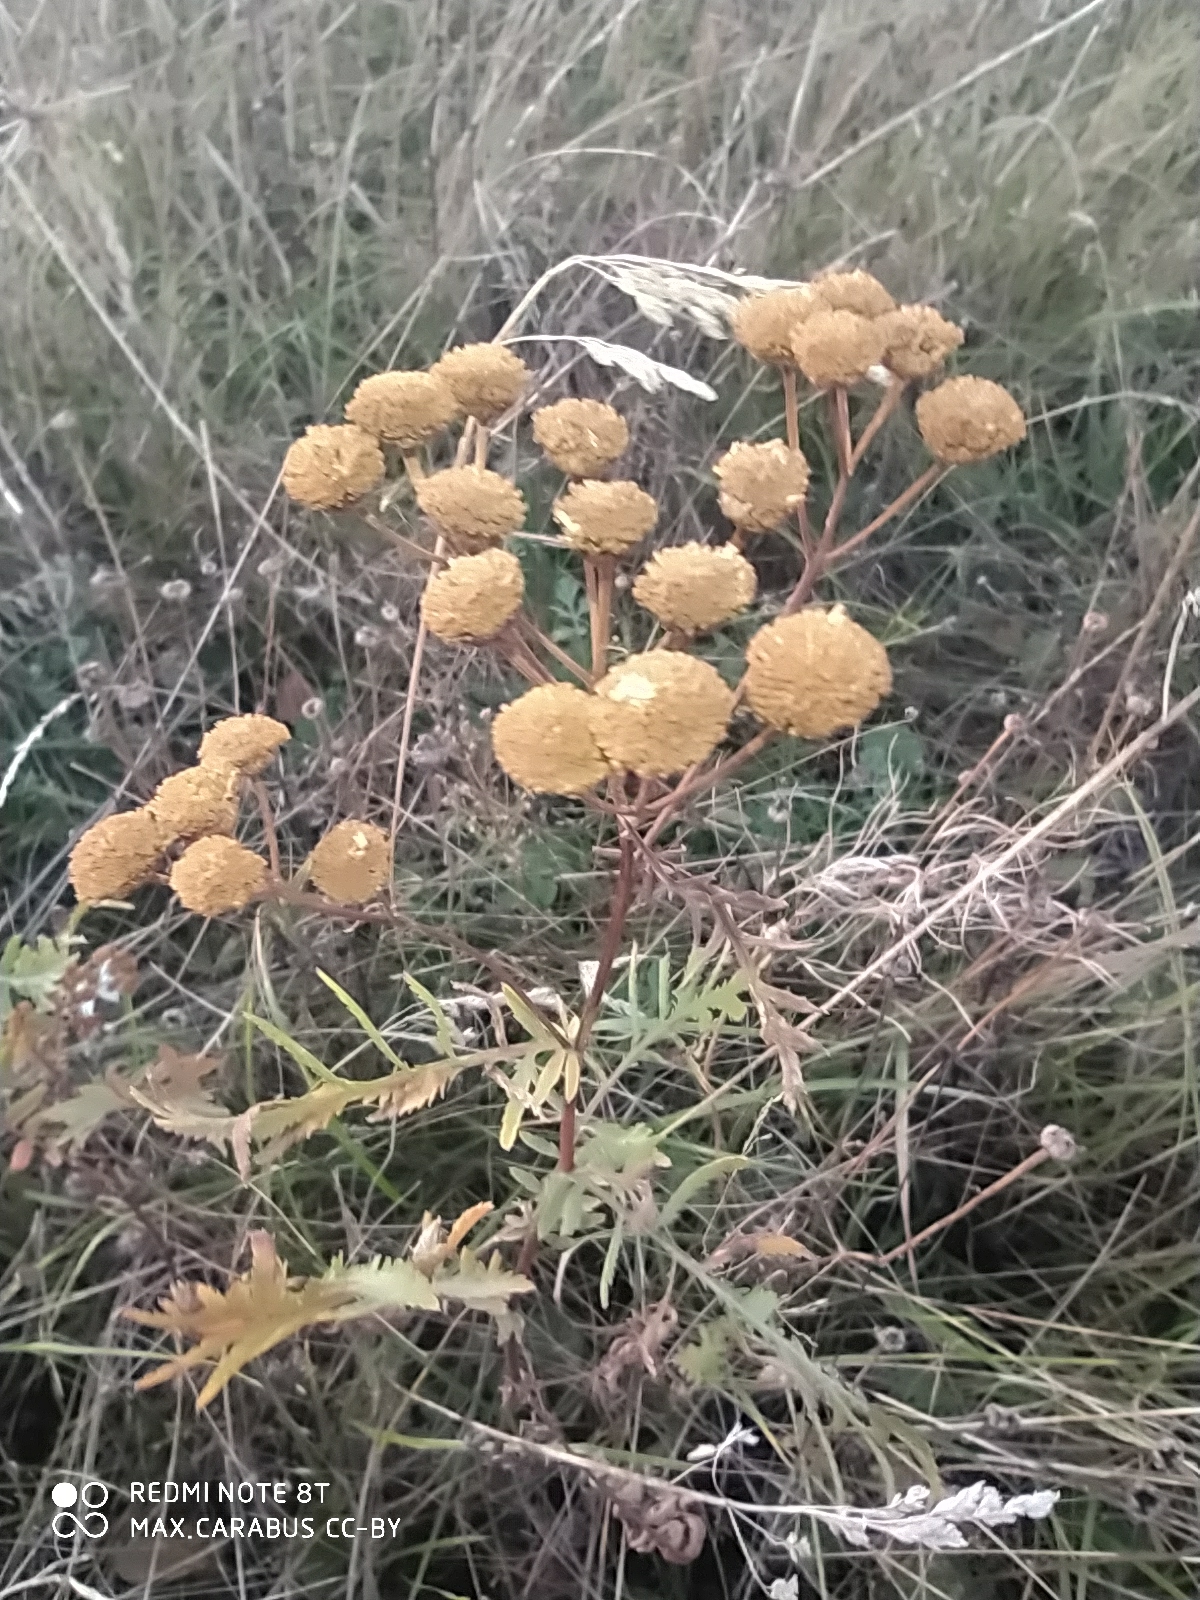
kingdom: Plantae
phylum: Tracheophyta
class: Magnoliopsida
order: Asterales
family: Asteraceae
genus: Tanacetum
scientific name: Tanacetum vulgare
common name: Common tansy
